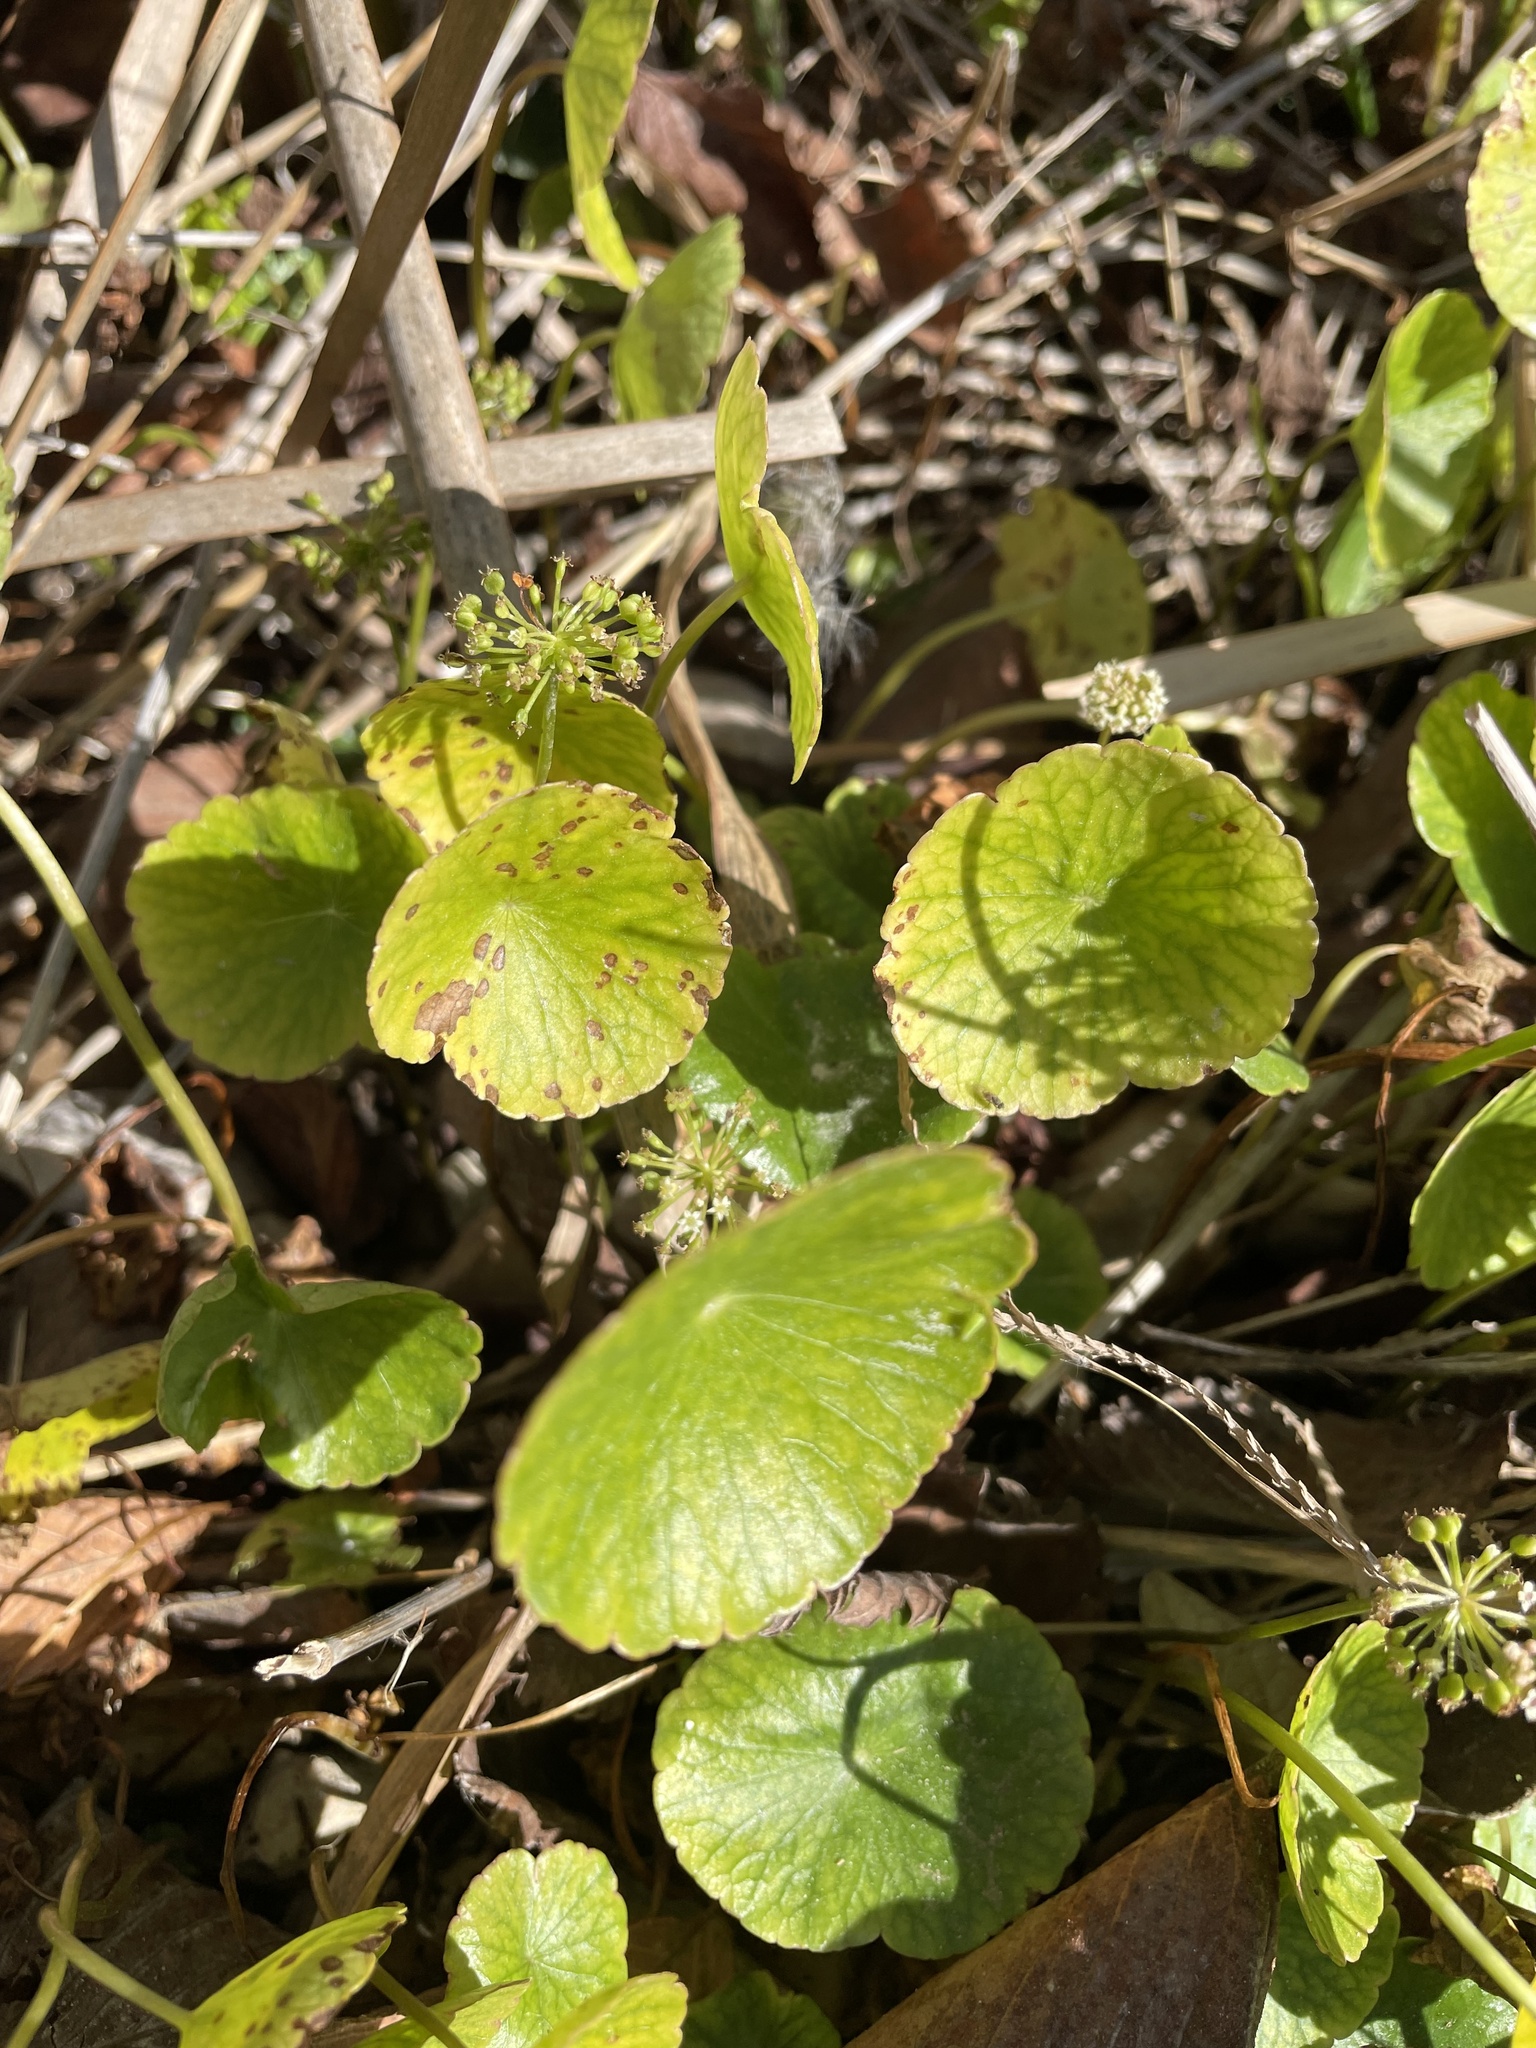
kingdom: Plantae
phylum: Tracheophyta
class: Magnoliopsida
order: Apiales
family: Araliaceae
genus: Hydrocotyle
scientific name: Hydrocotyle umbellata
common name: Water pennywort
